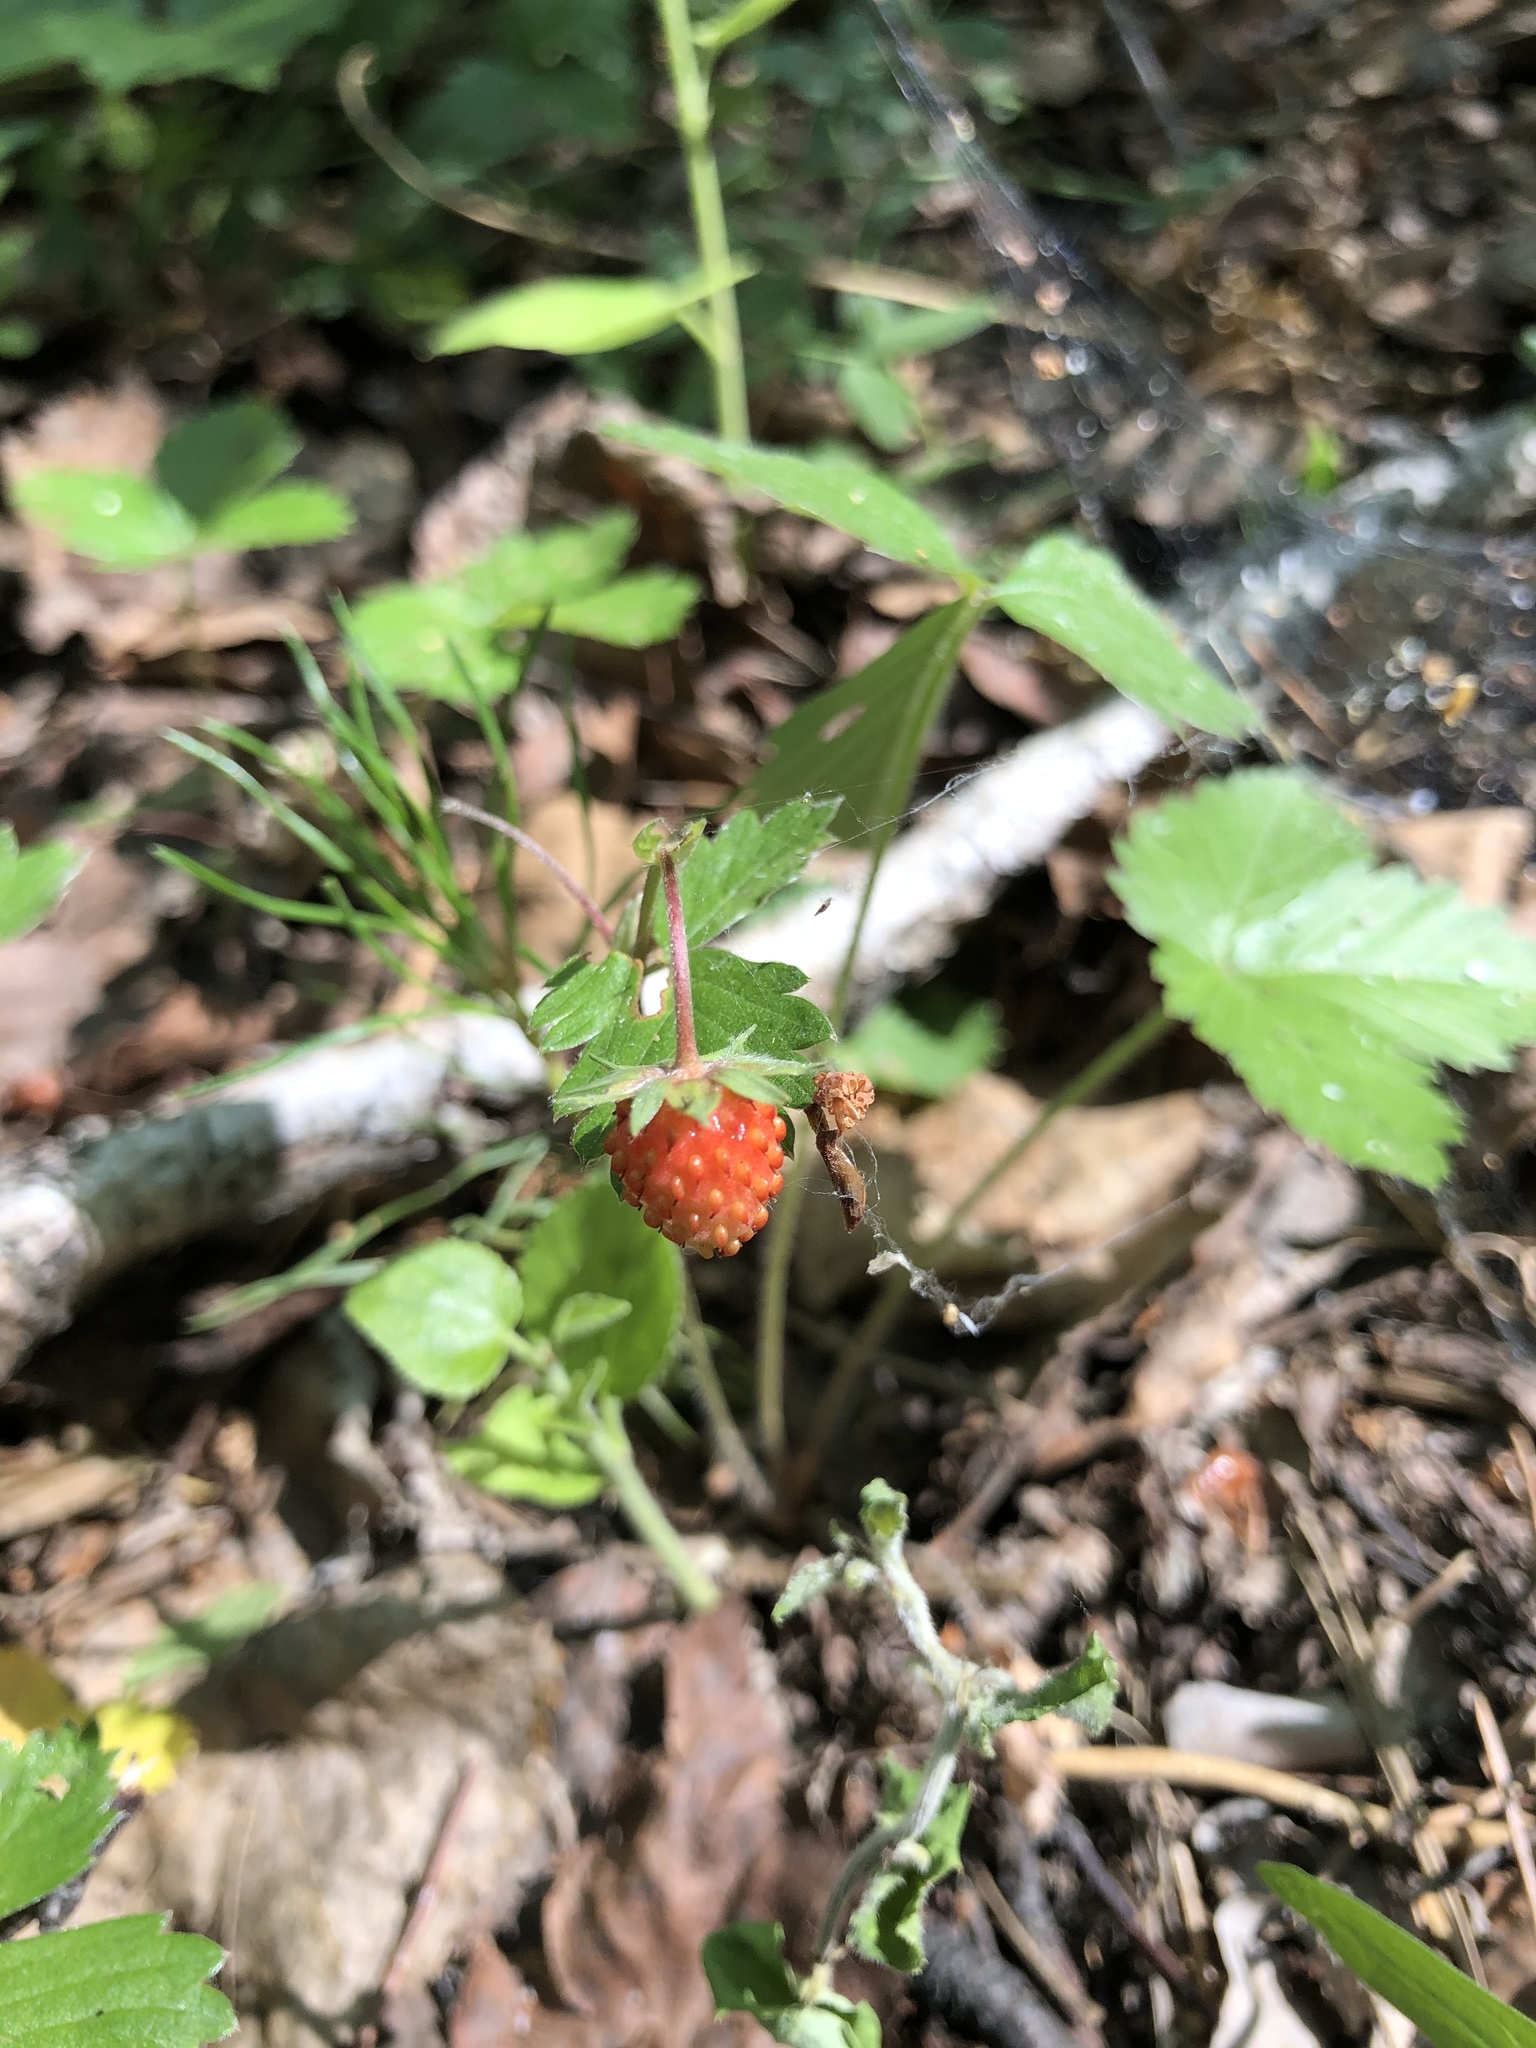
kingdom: Plantae
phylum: Tracheophyta
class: Magnoliopsida
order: Rosales
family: Rosaceae
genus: Fragaria
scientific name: Fragaria vesca
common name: Wild strawberry
